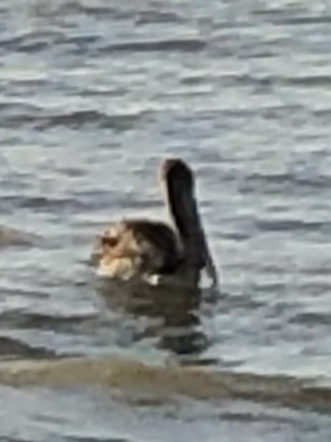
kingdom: Animalia
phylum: Chordata
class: Aves
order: Pelecaniformes
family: Pelecanidae
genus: Pelecanus
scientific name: Pelecanus occidentalis
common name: Brown pelican
